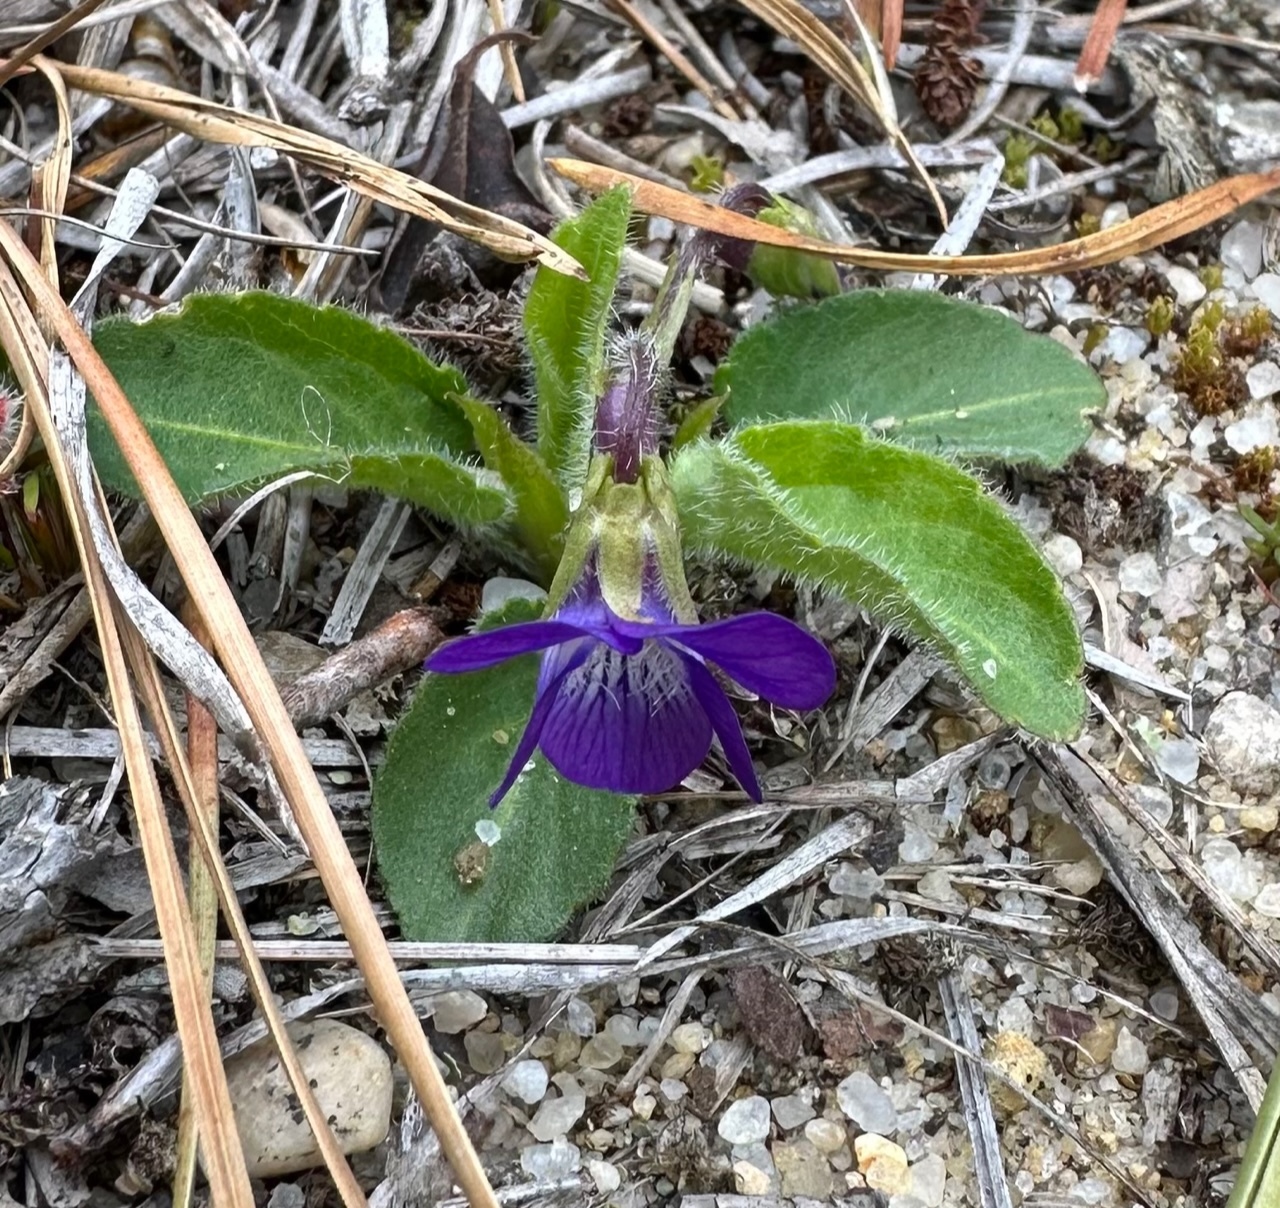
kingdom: Plantae
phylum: Tracheophyta
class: Magnoliopsida
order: Malpighiales
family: Violaceae
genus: Viola
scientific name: Viola fimbriatula
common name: Sand violet
